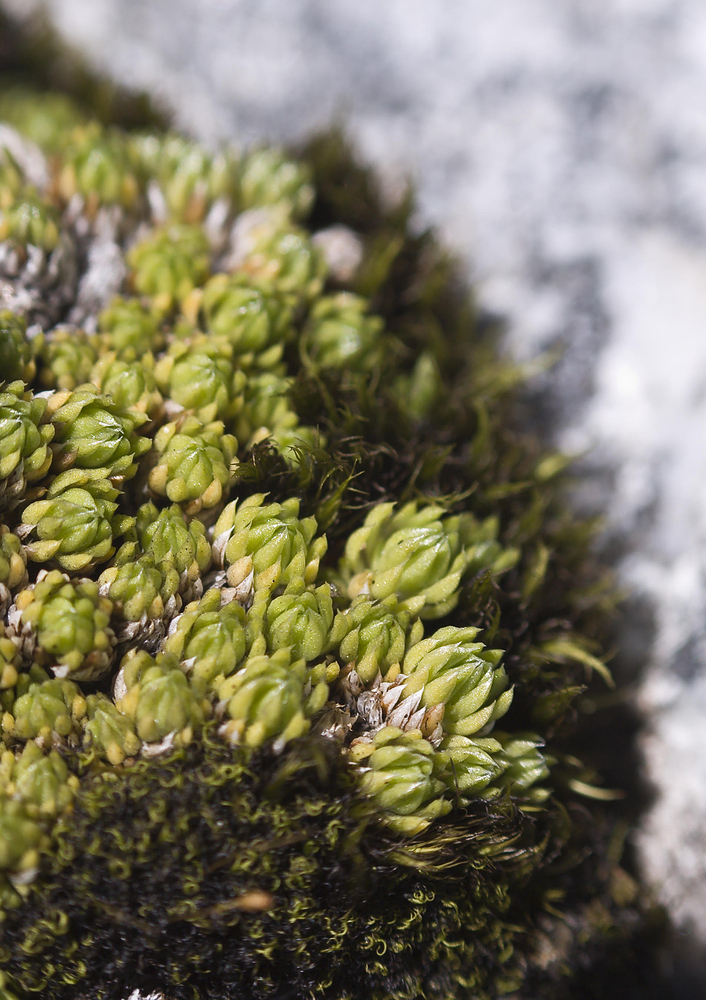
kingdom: Plantae
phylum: Tracheophyta
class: Magnoliopsida
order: Saxifragales
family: Saxifragaceae
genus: Saxifraga
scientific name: Saxifraga bryoides
